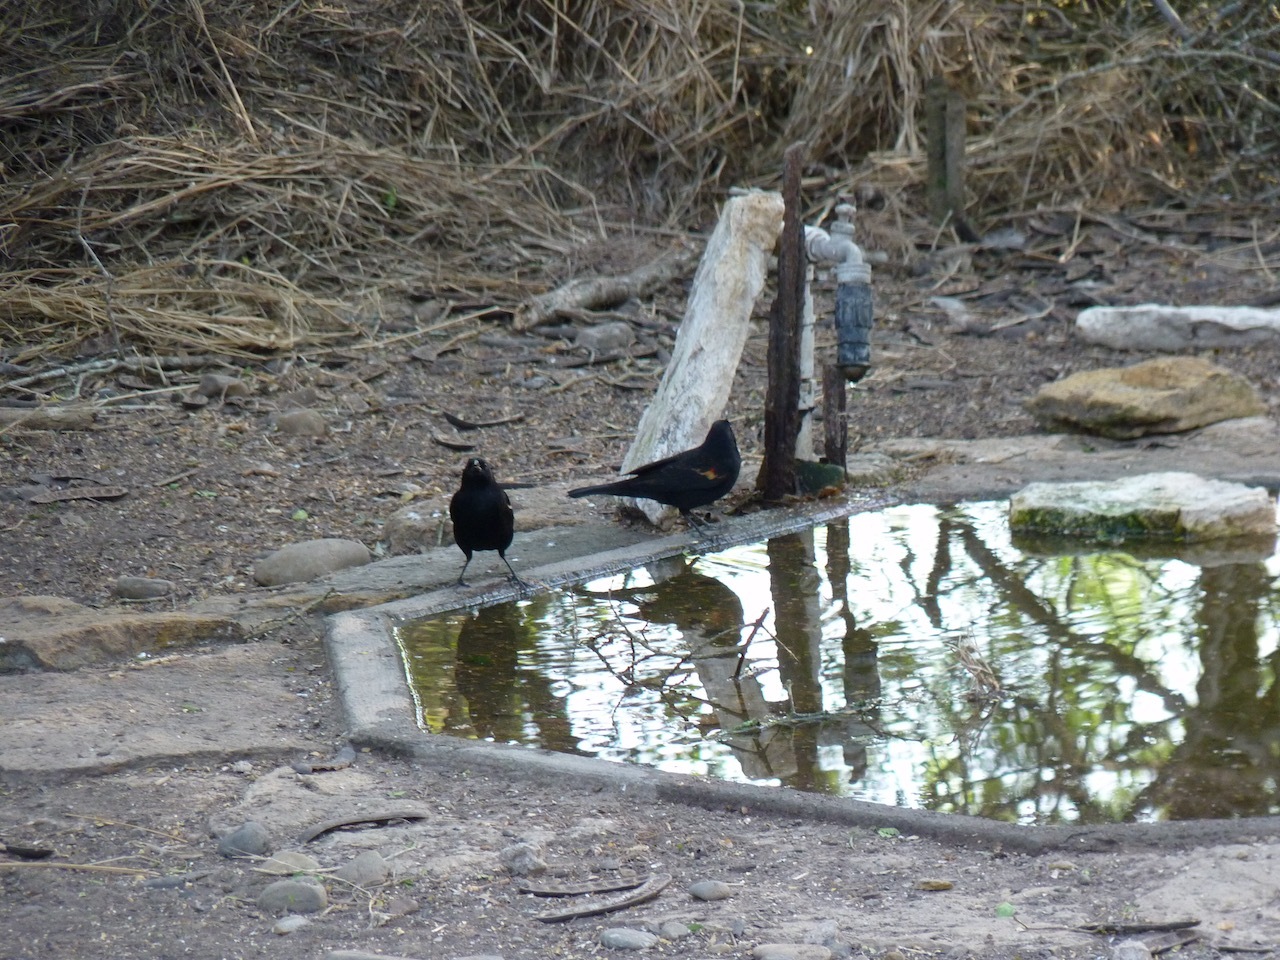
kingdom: Animalia
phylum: Chordata
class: Aves
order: Passeriformes
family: Icteridae
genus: Agelaius
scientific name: Agelaius phoeniceus
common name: Red-winged blackbird
